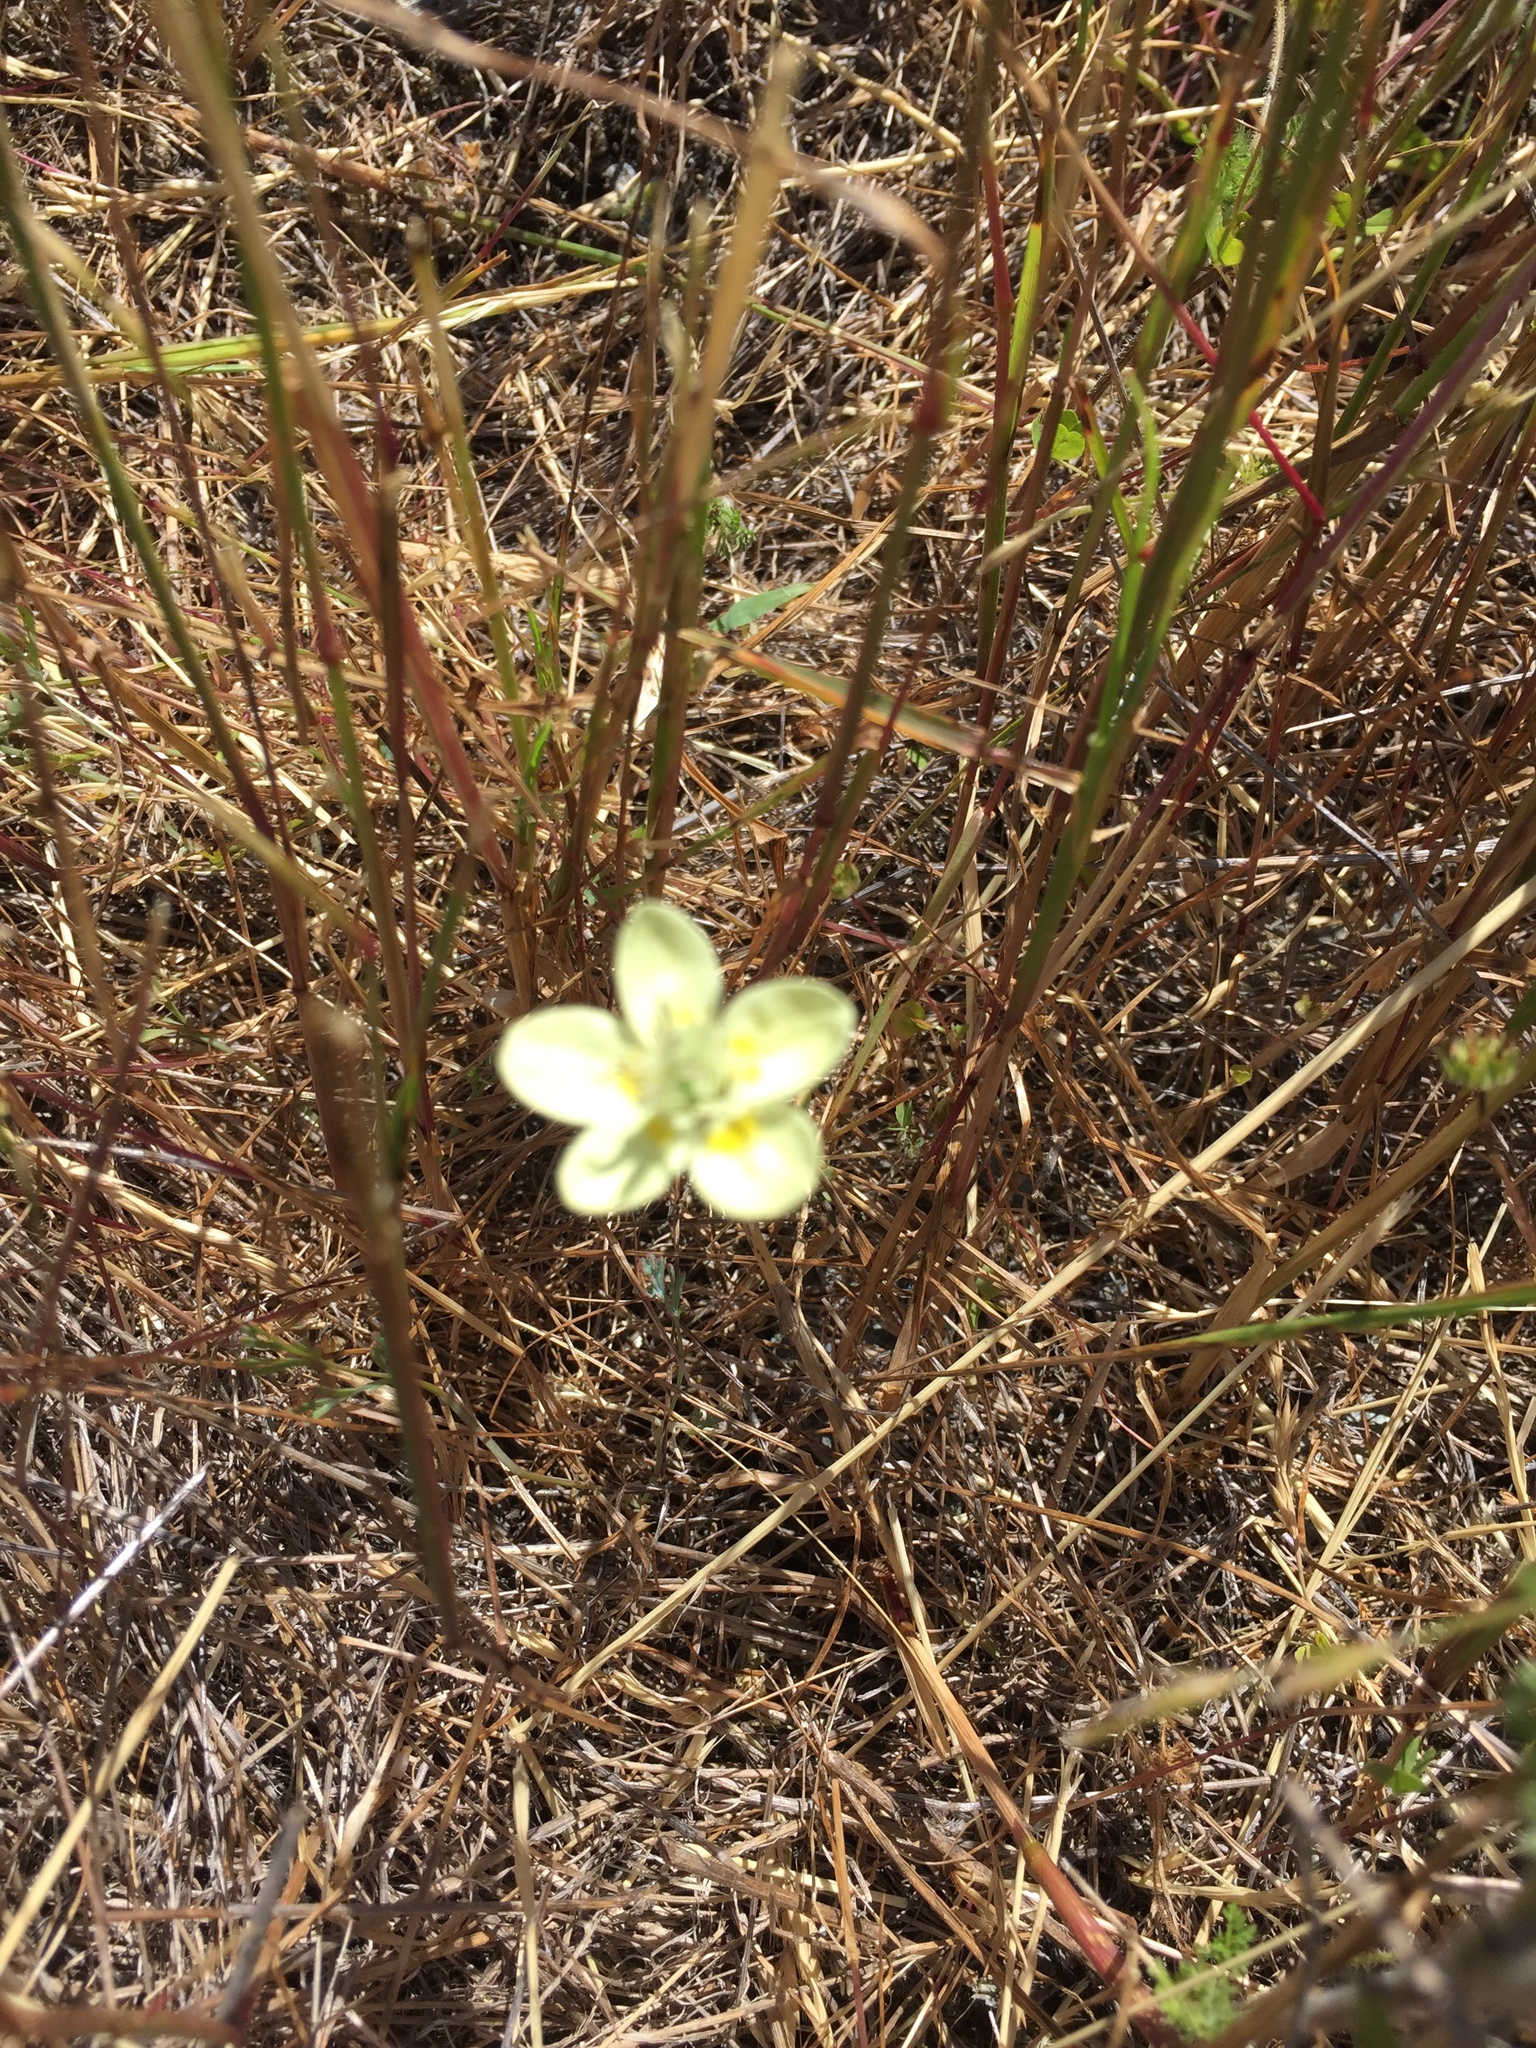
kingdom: Plantae
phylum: Tracheophyta
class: Magnoliopsida
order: Ranunculales
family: Papaveraceae
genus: Platystemon
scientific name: Platystemon californicus
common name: Cream-cups
